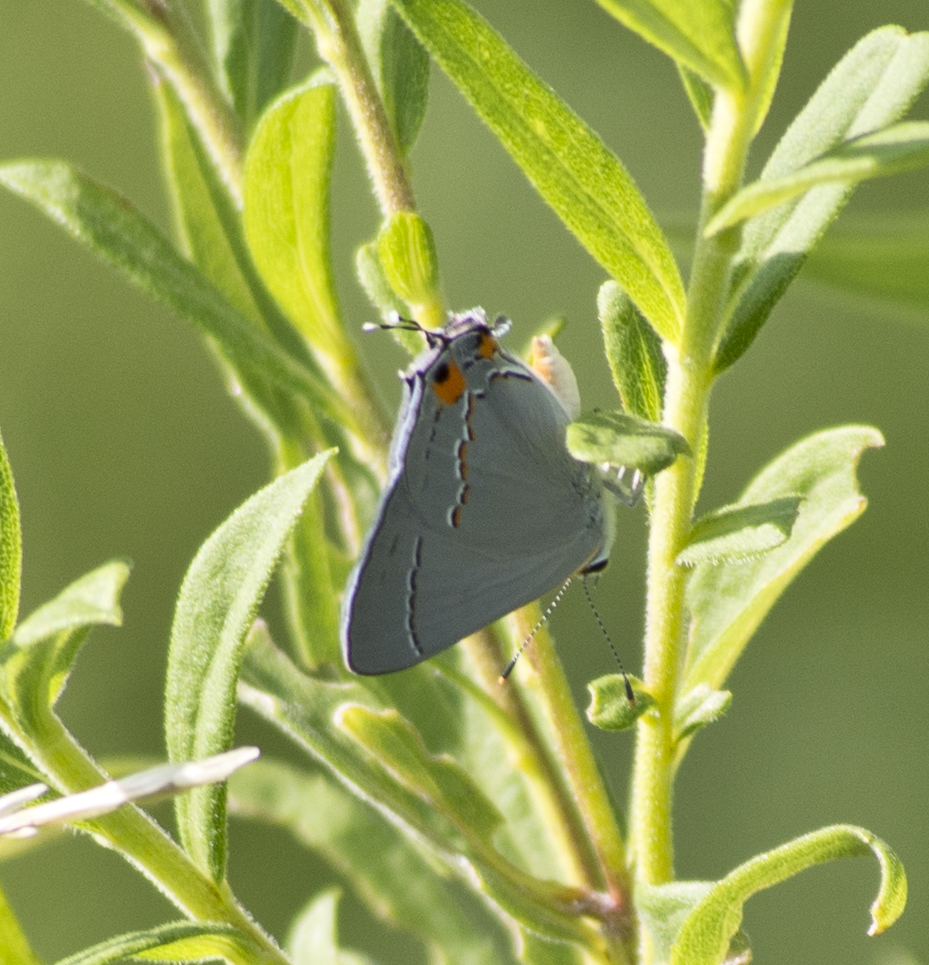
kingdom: Animalia
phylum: Arthropoda
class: Insecta
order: Lepidoptera
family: Lycaenidae
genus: Strymon
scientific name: Strymon melinus
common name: Gray hairstreak
